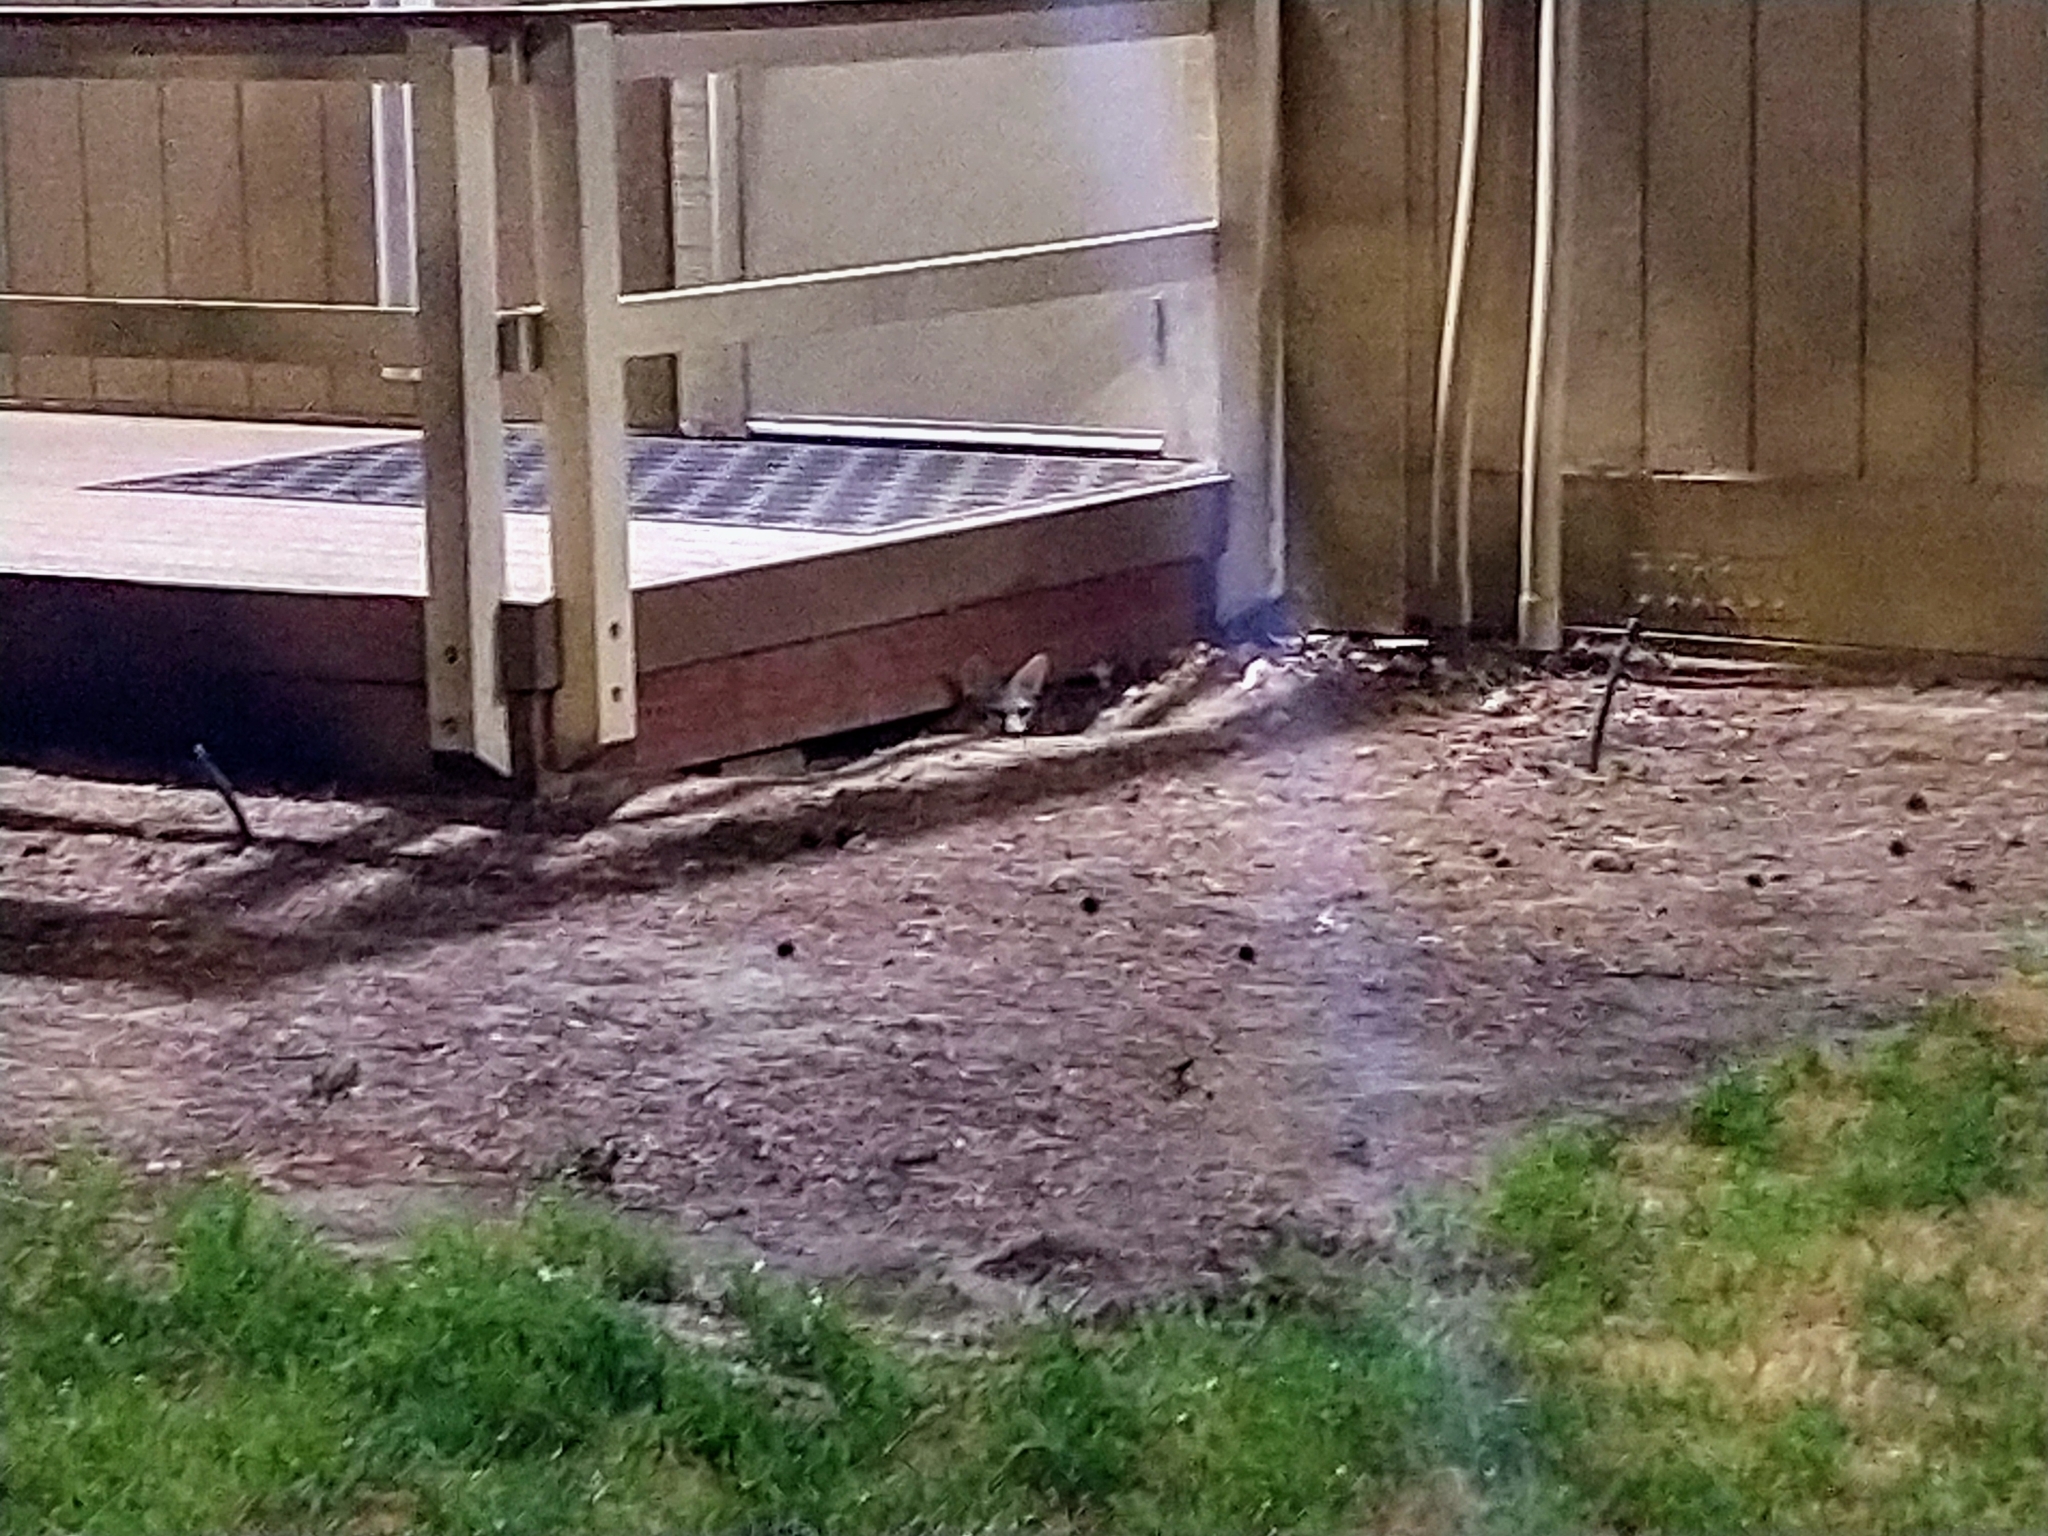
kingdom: Animalia
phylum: Chordata
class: Mammalia
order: Carnivora
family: Canidae
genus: Urocyon
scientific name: Urocyon cinereoargenteus
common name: Gray fox
